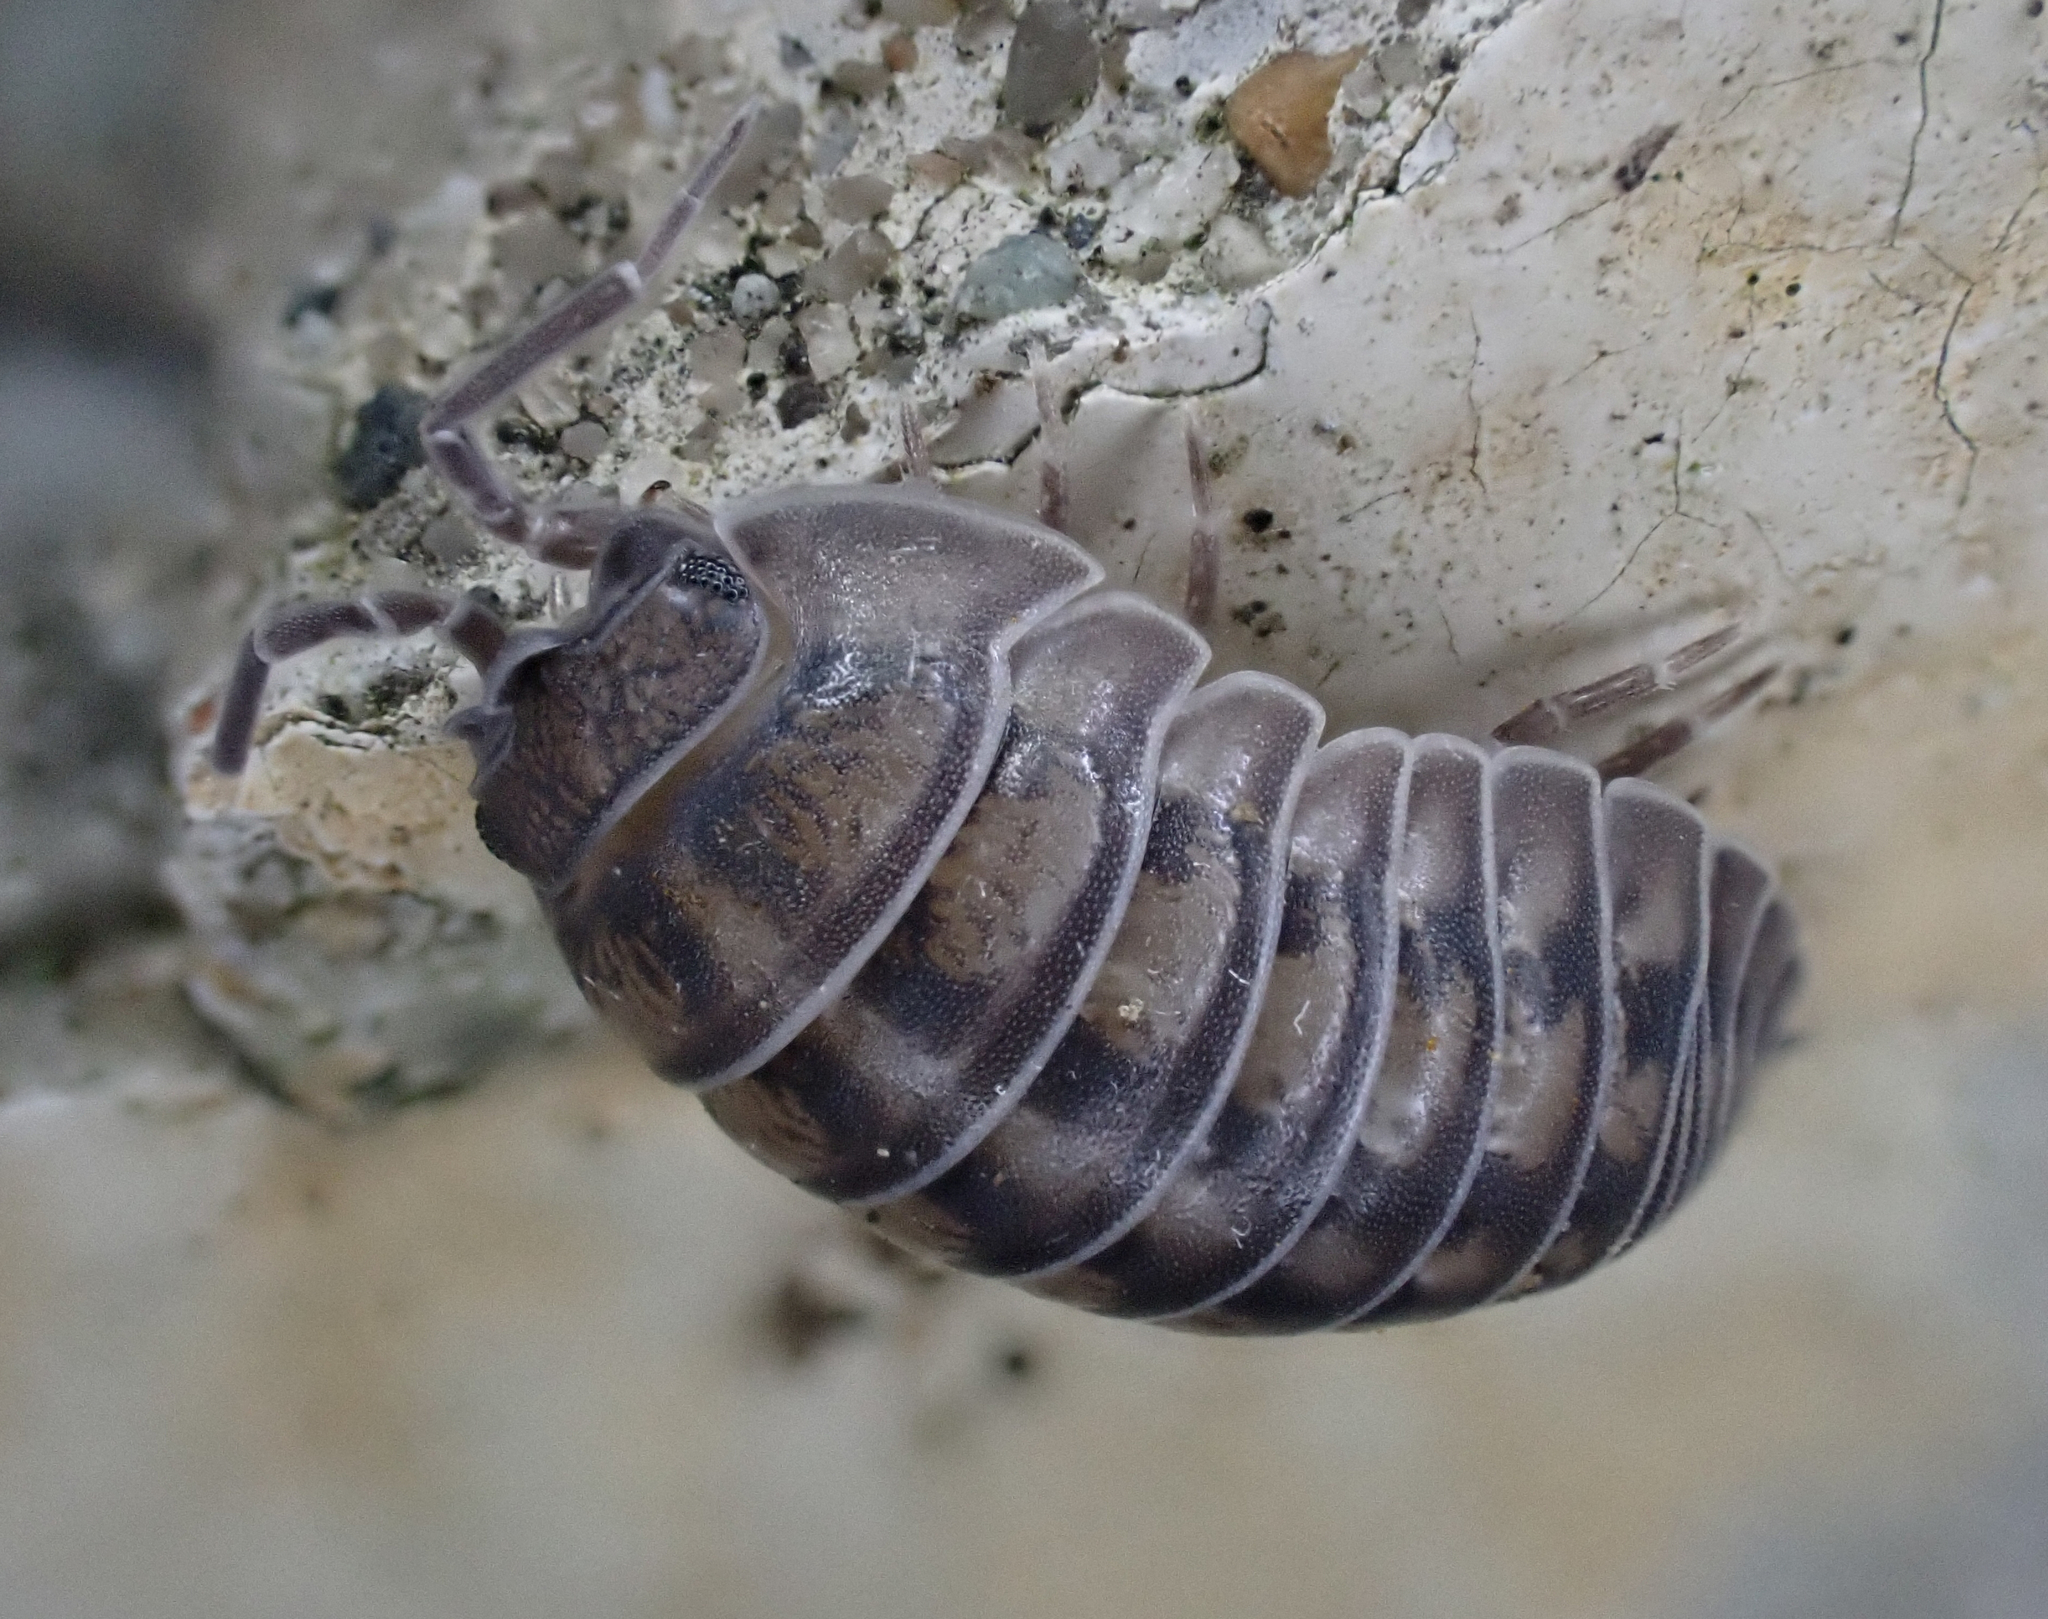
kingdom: Animalia
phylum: Arthropoda
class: Malacostraca
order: Isopoda
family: Armadillidiidae
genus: Armadillidium
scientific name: Armadillidium nasatum
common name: Isopod
